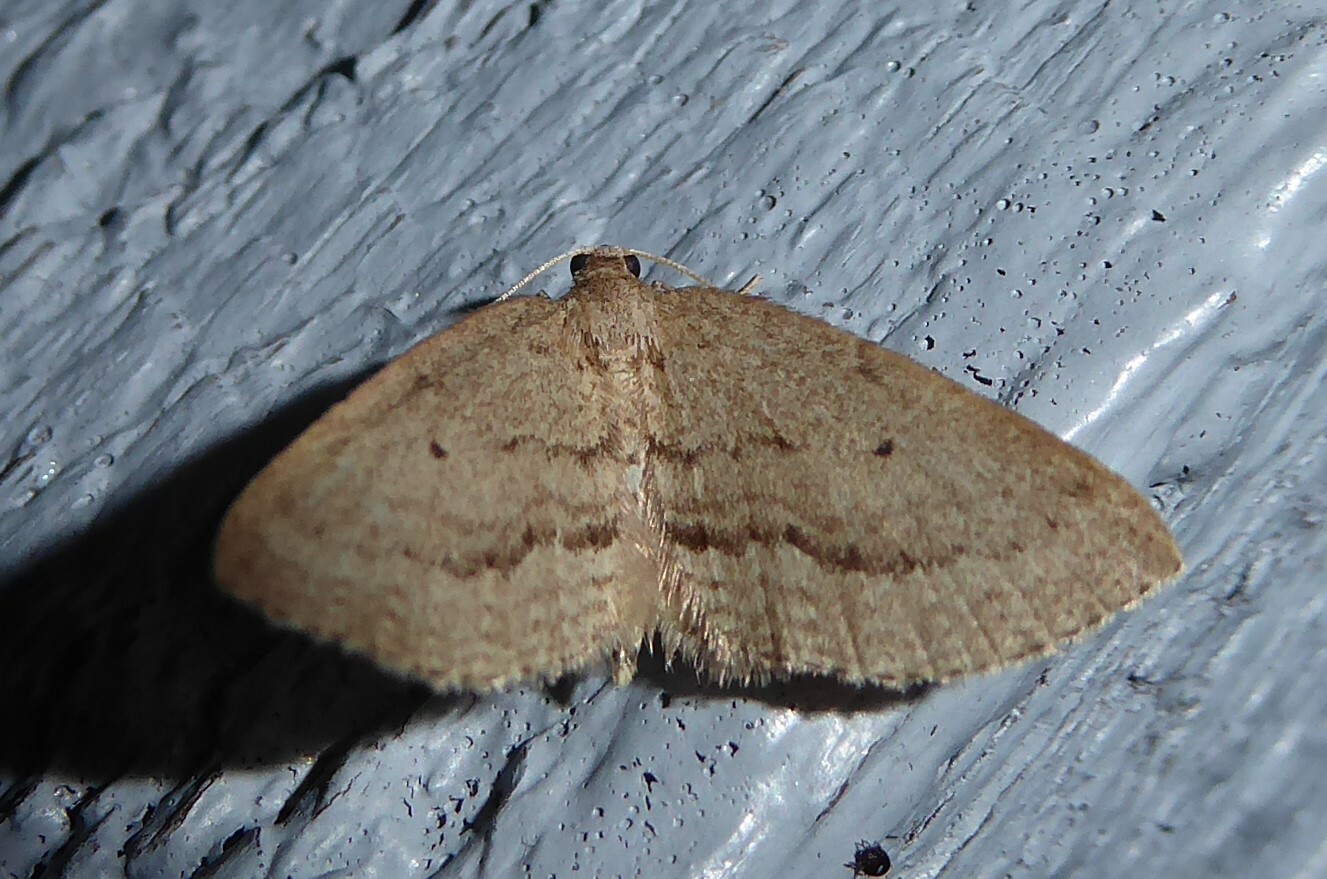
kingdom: Animalia
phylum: Arthropoda
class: Insecta
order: Lepidoptera
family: Geometridae
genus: Poecilasthena
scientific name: Poecilasthena schistaria
